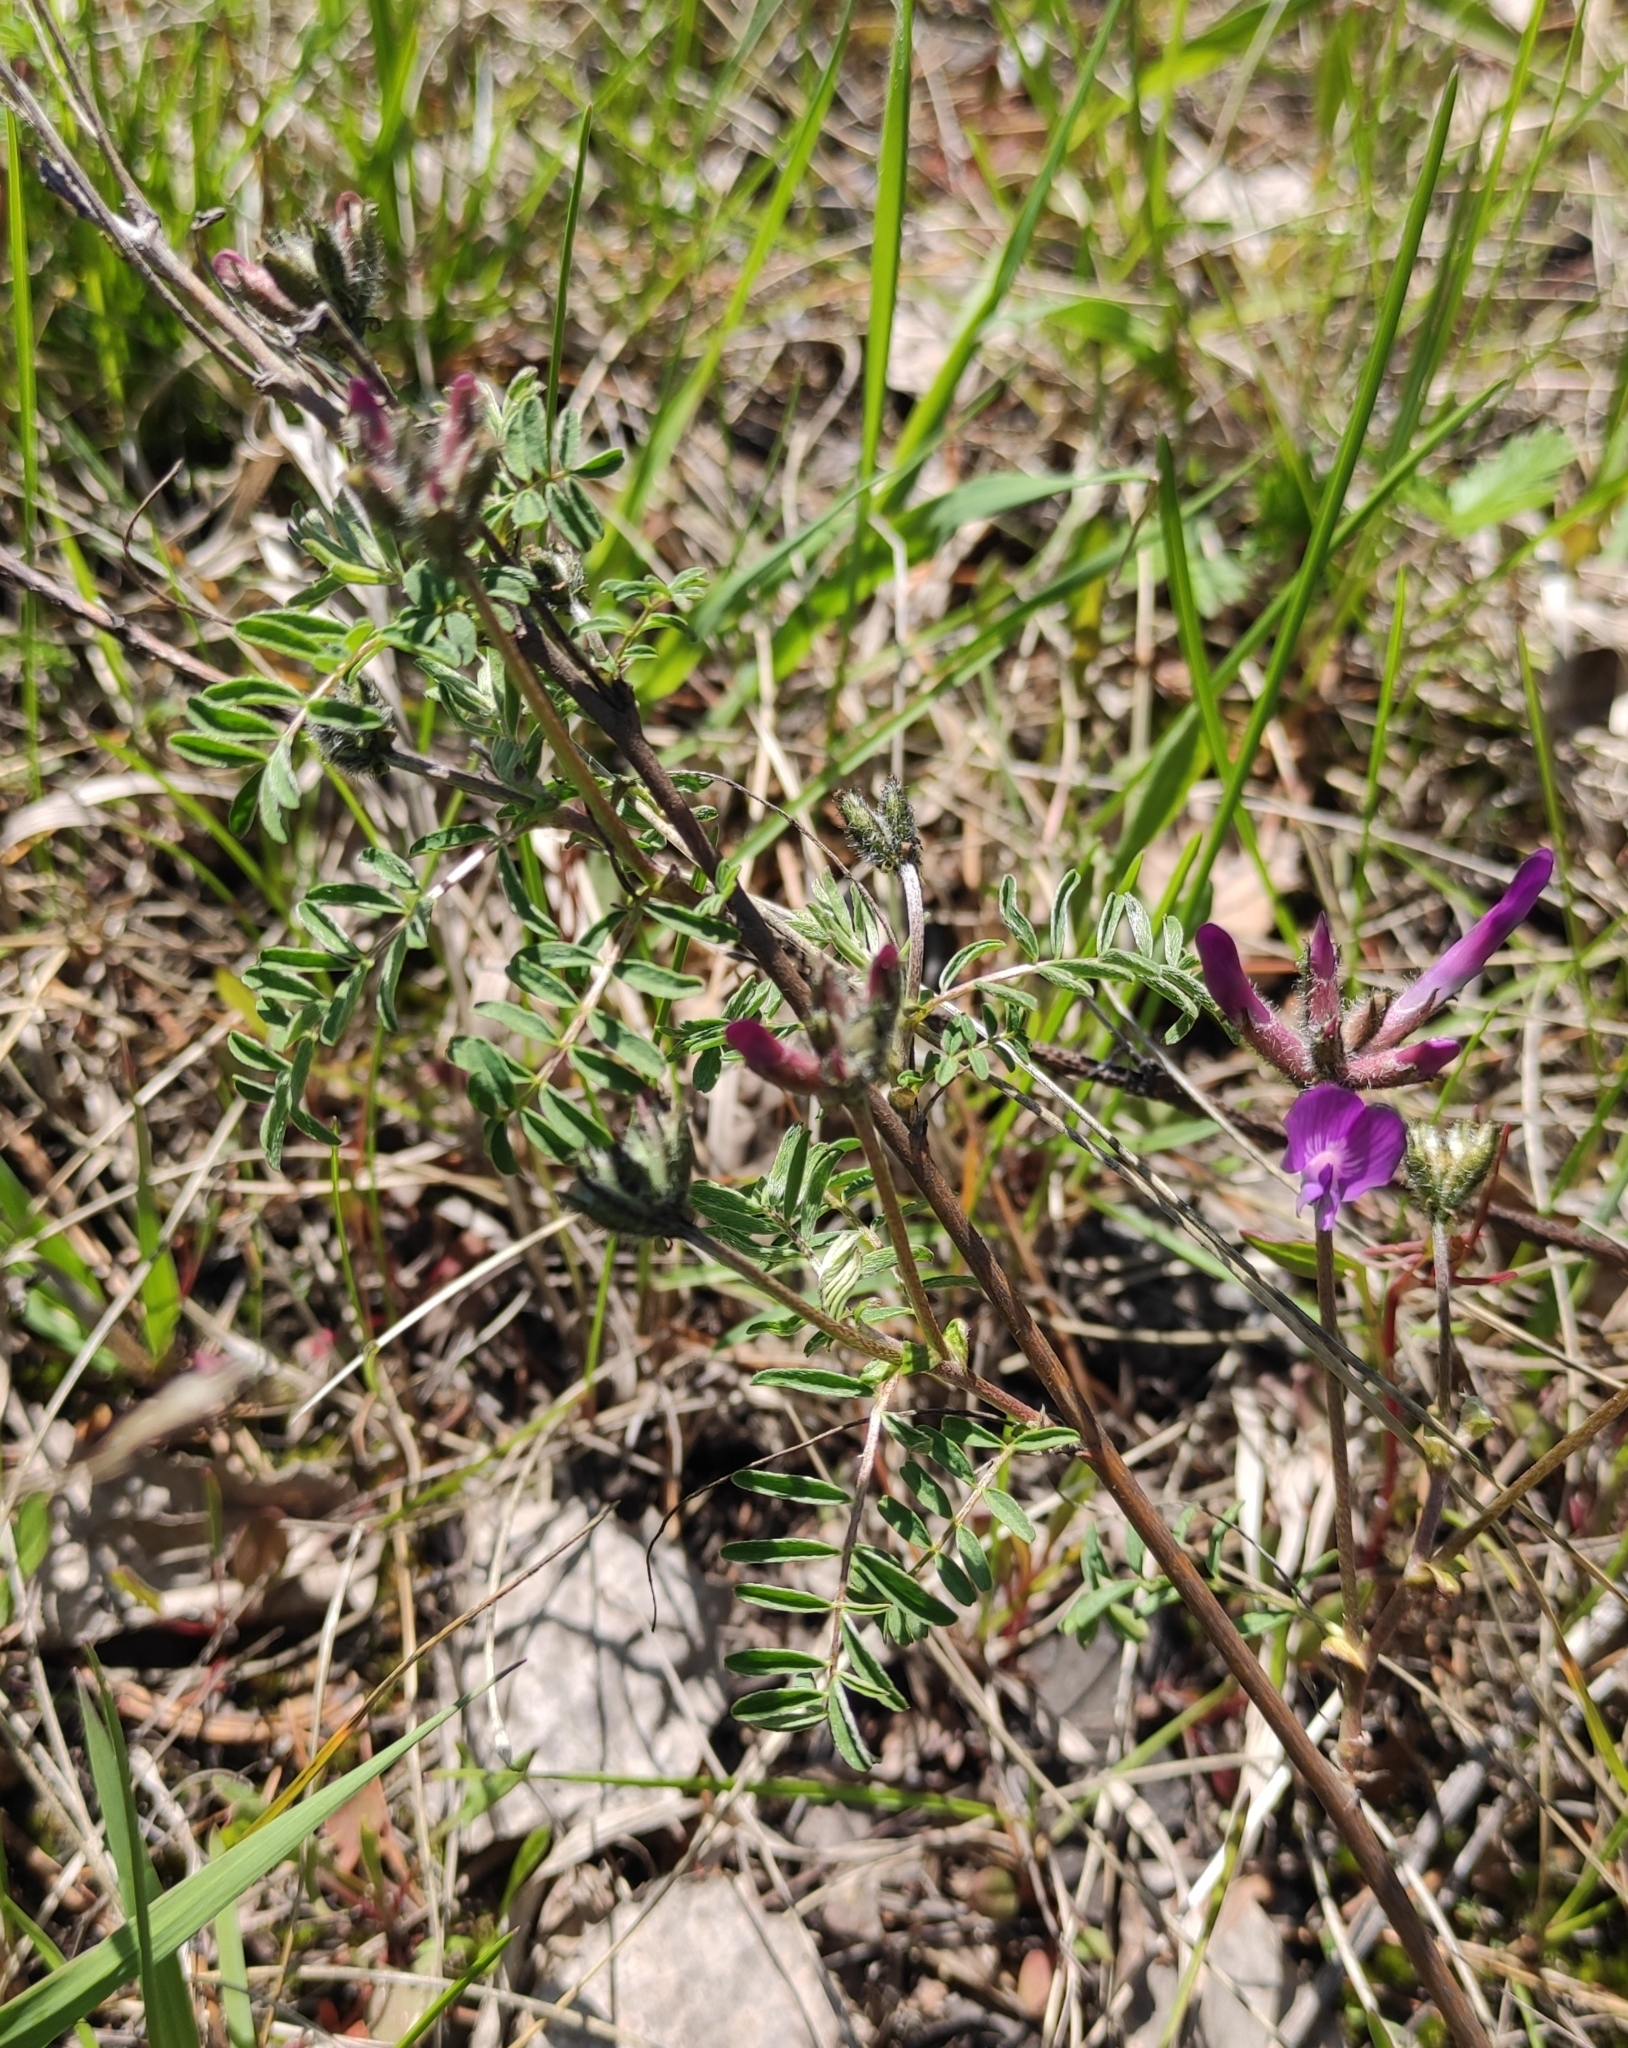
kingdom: Plantae
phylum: Tracheophyta
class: Magnoliopsida
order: Fabales
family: Fabaceae
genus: Astragalus
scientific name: Astragalus syriacus
